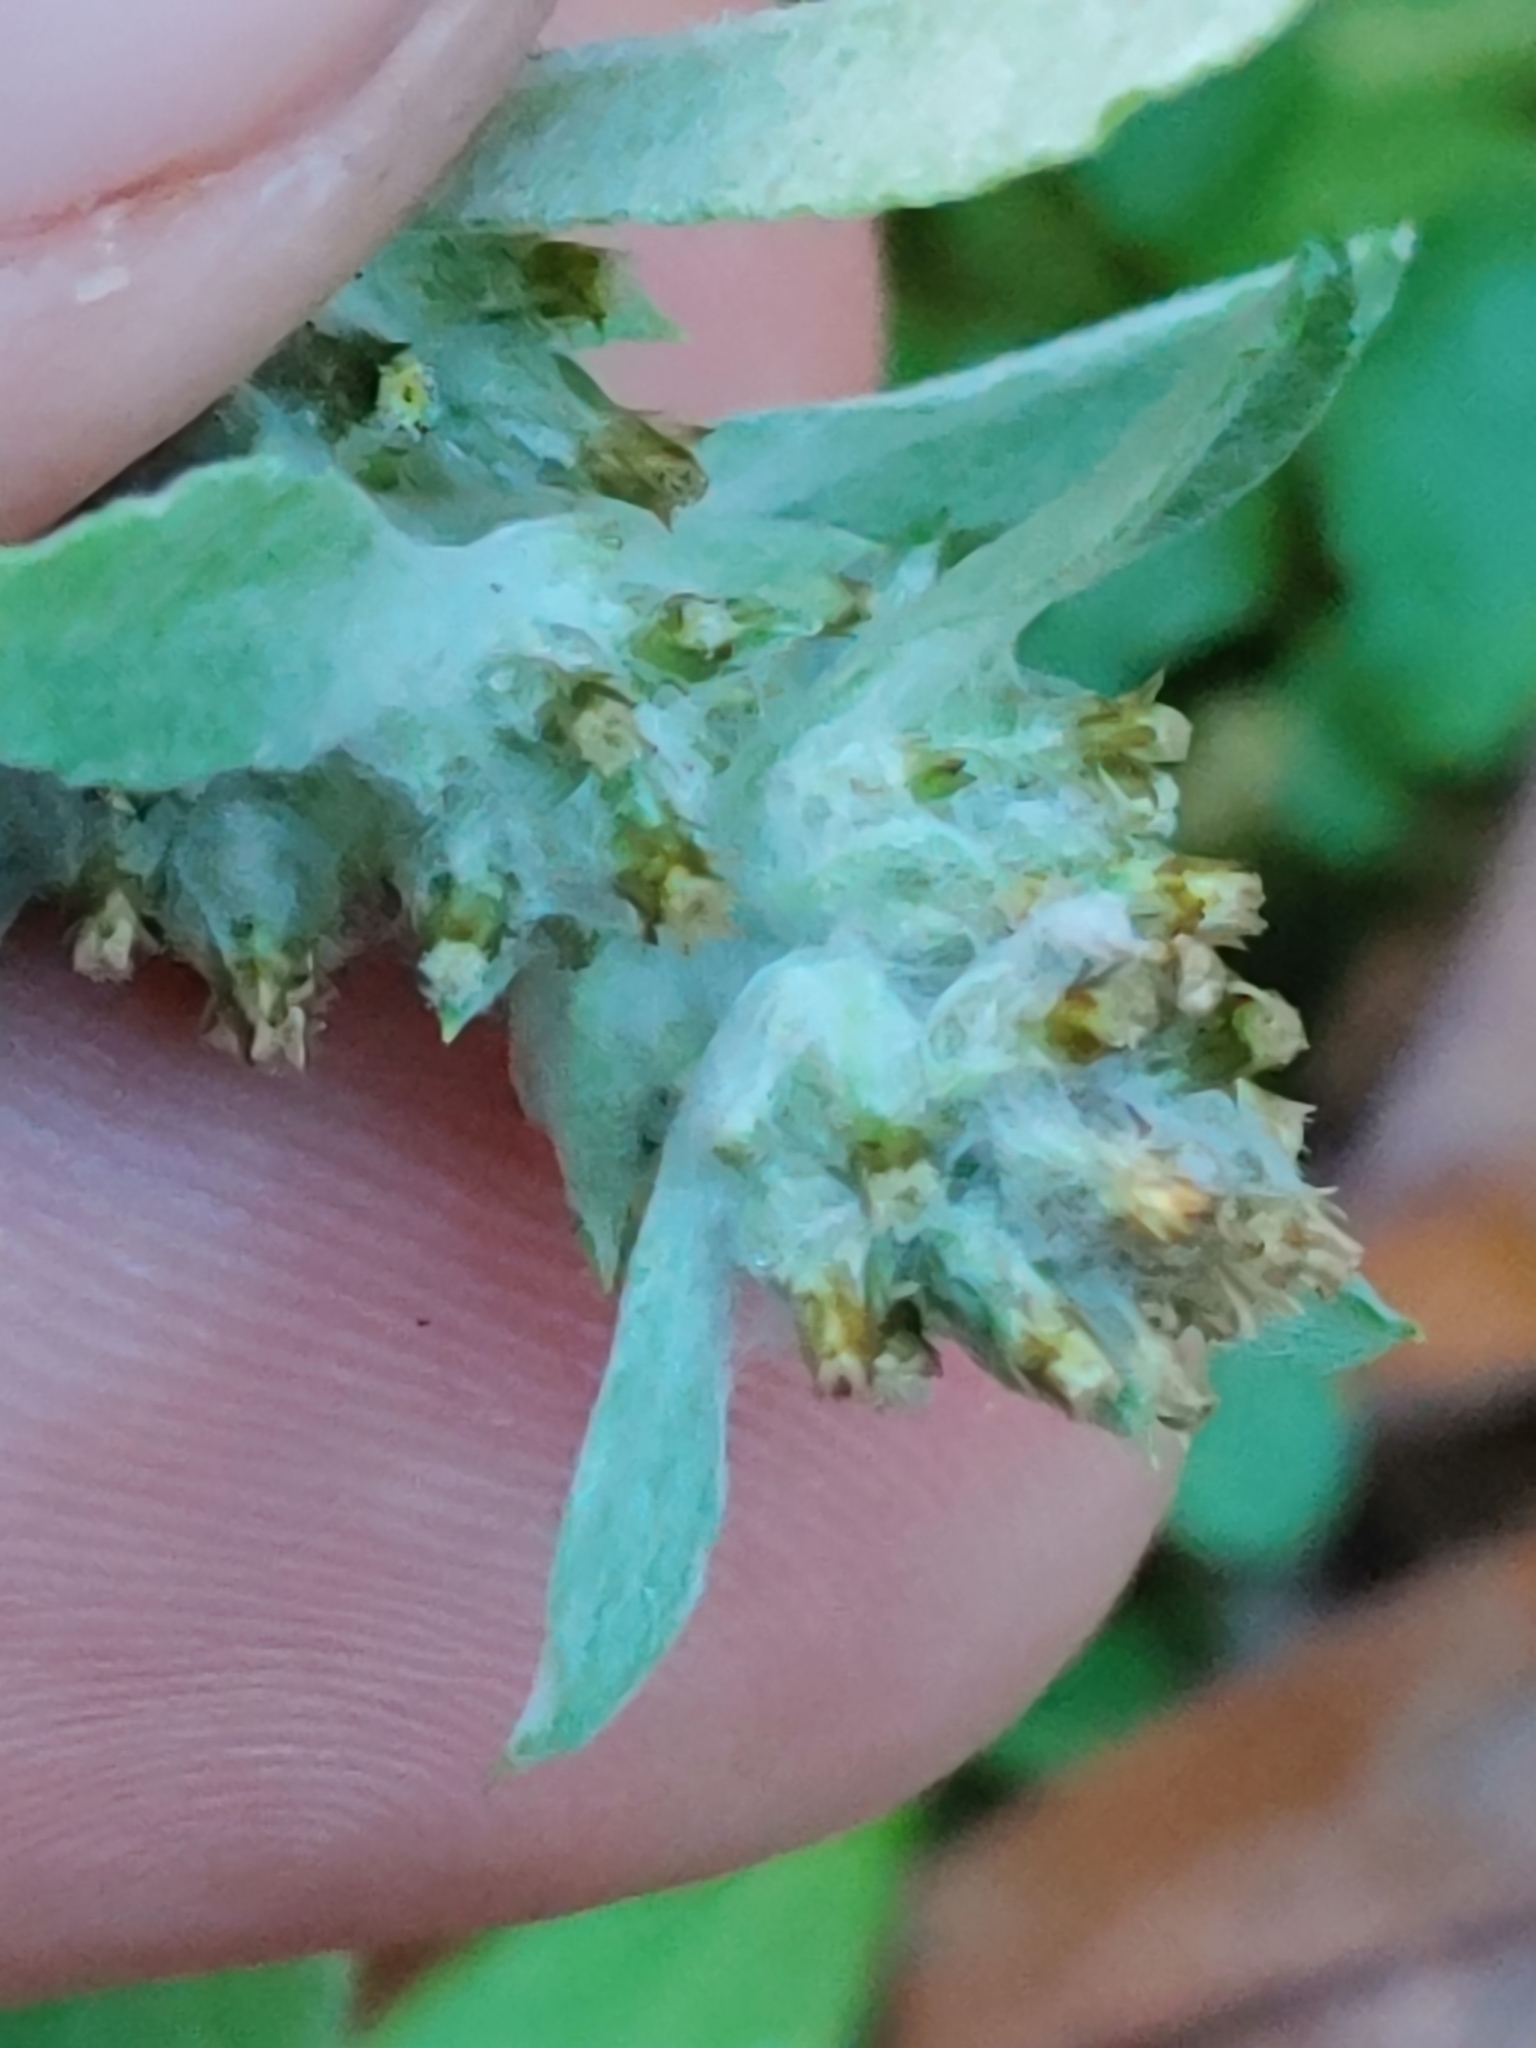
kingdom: Plantae
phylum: Tracheophyta
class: Magnoliopsida
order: Asterales
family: Asteraceae
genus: Gamochaeta
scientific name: Gamochaeta pensylvanica
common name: Pennsylvania everlasting
